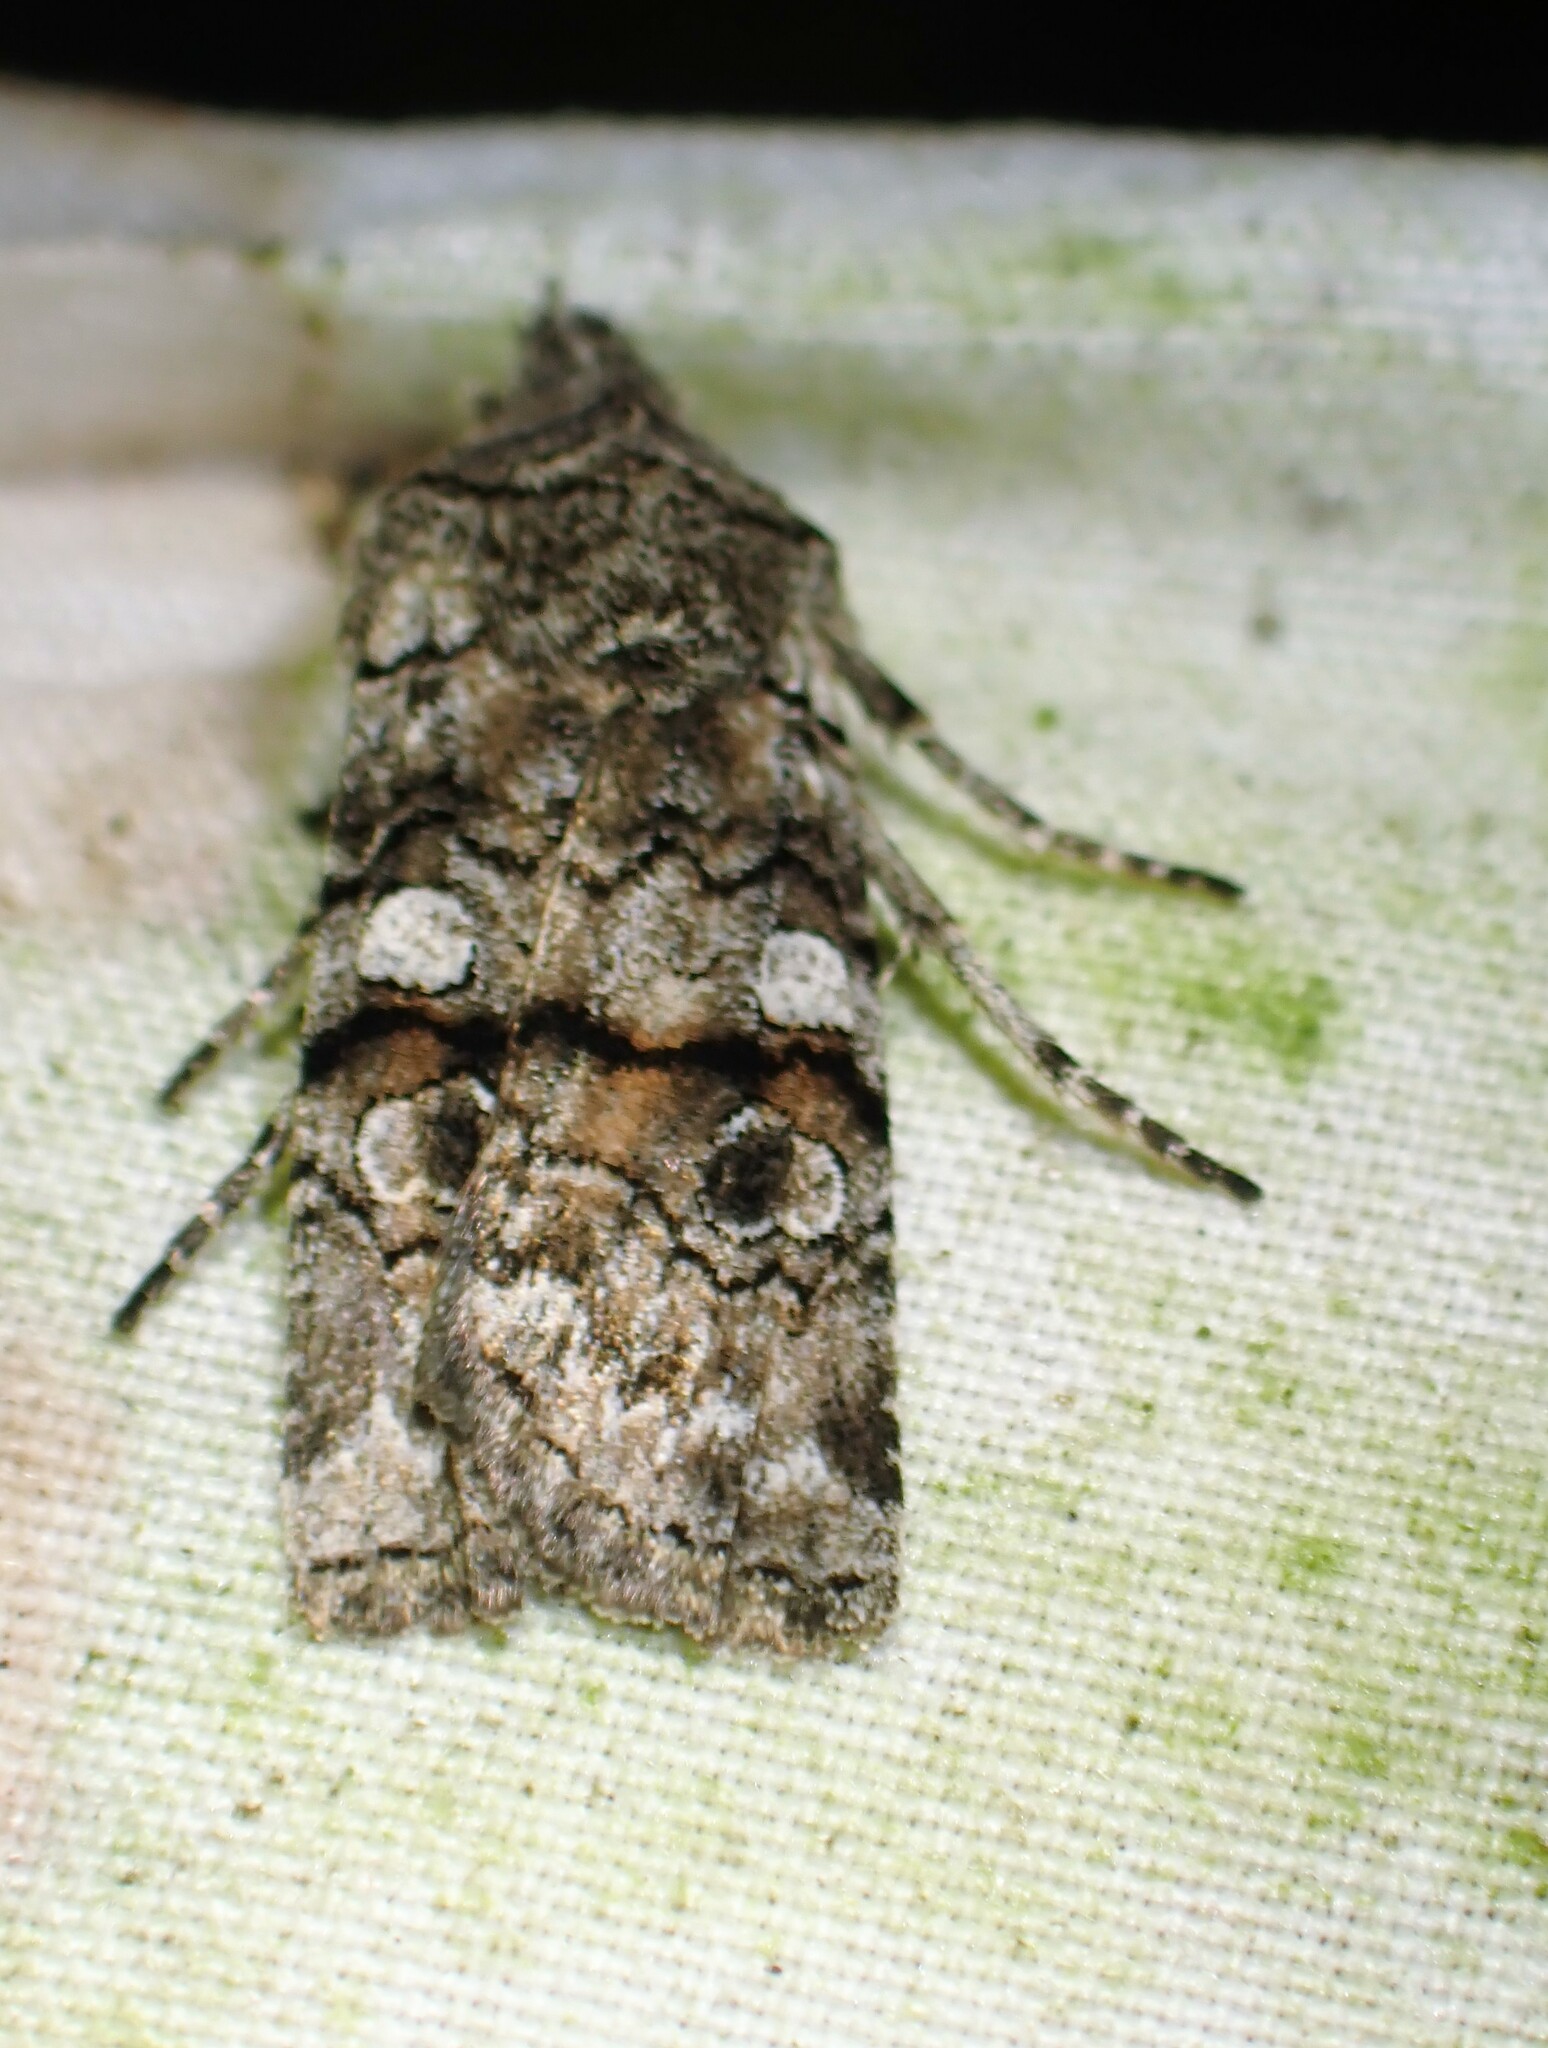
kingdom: Animalia
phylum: Arthropoda
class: Insecta
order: Lepidoptera
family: Noctuidae
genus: Litholomia
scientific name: Litholomia napaea
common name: False pinion moth
